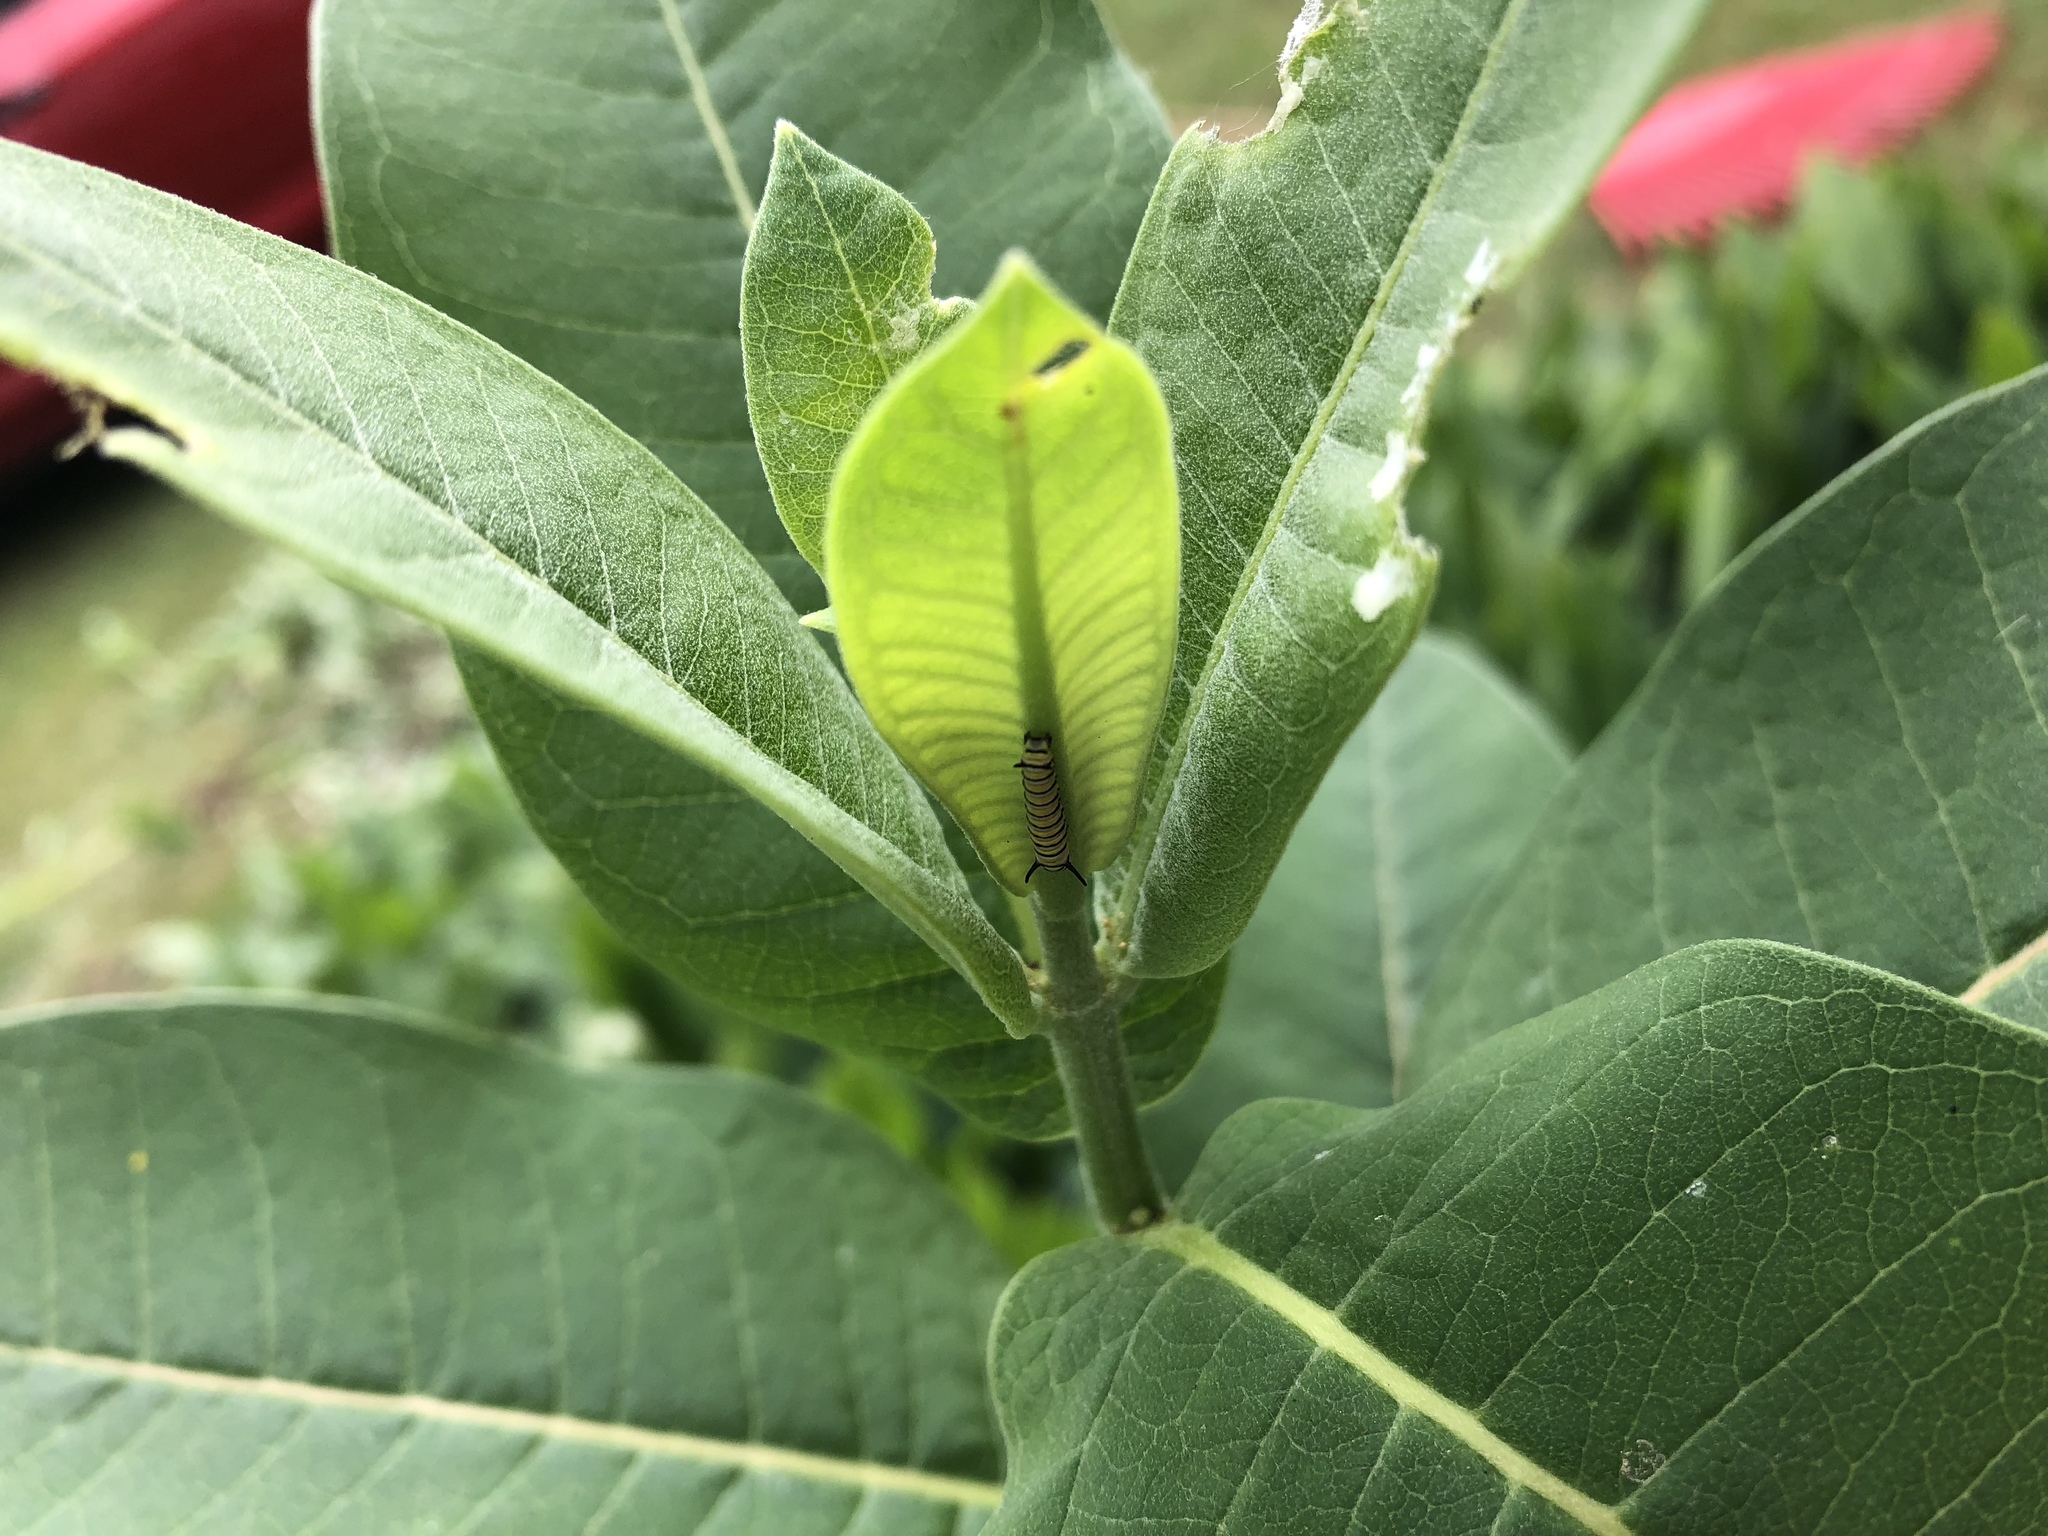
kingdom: Animalia
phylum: Arthropoda
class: Insecta
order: Lepidoptera
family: Nymphalidae
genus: Danaus
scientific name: Danaus plexippus
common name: Monarch
